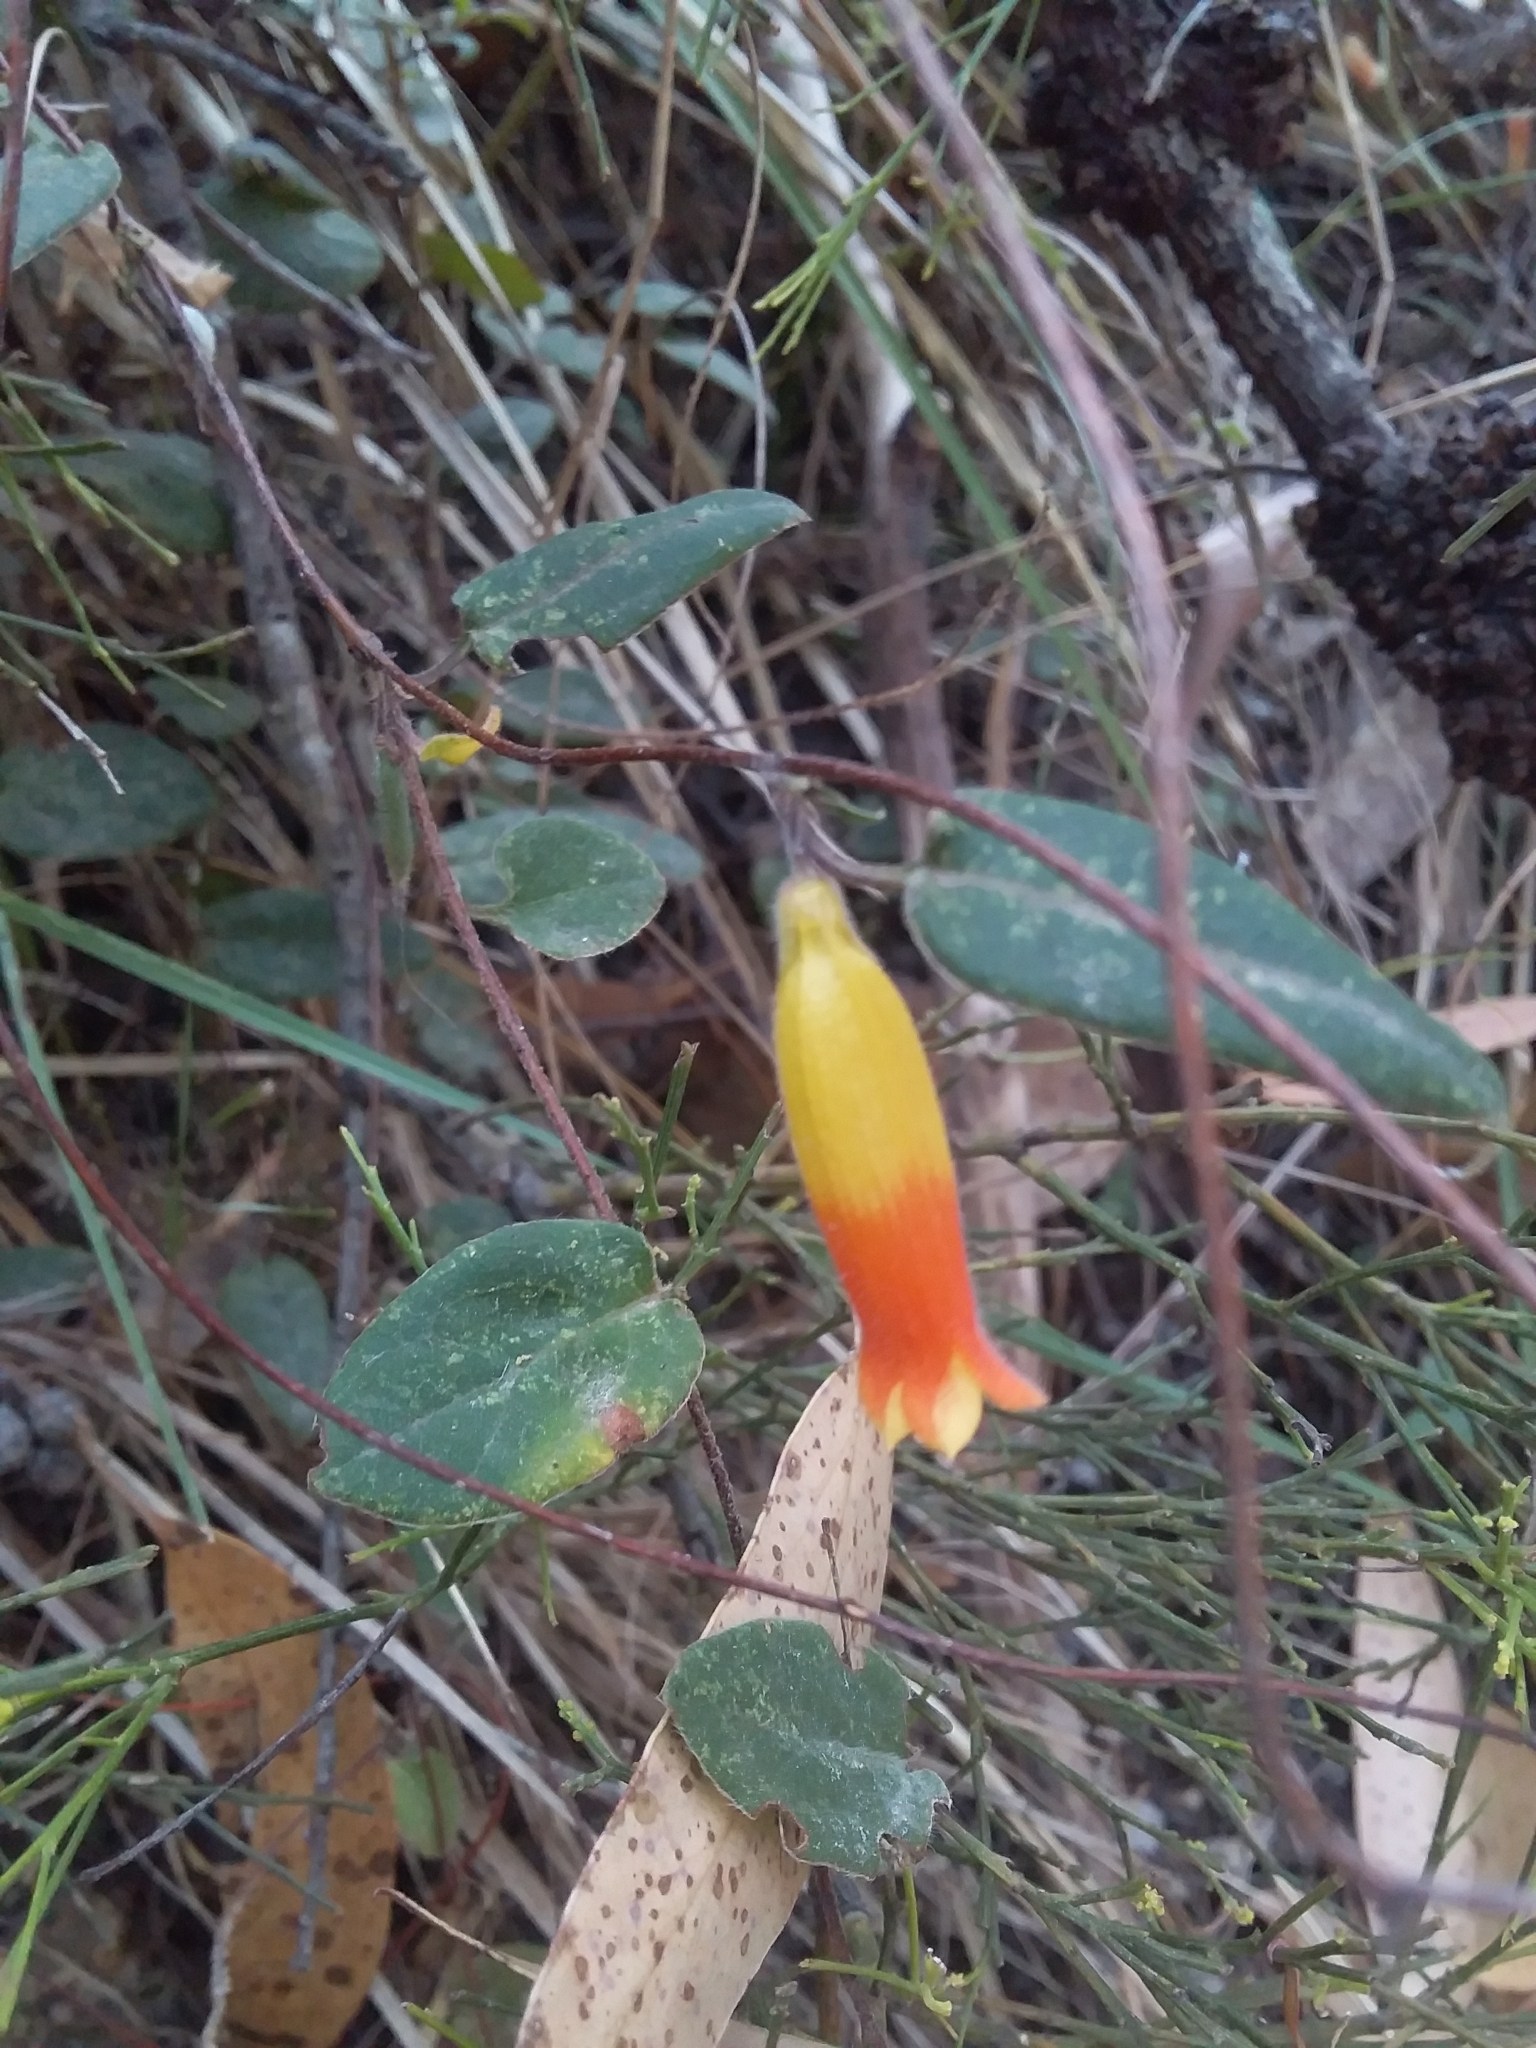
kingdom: Plantae
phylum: Tracheophyta
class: Magnoliopsida
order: Apiales
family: Pittosporaceae
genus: Marianthus
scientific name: Marianthus bignoniaceus
